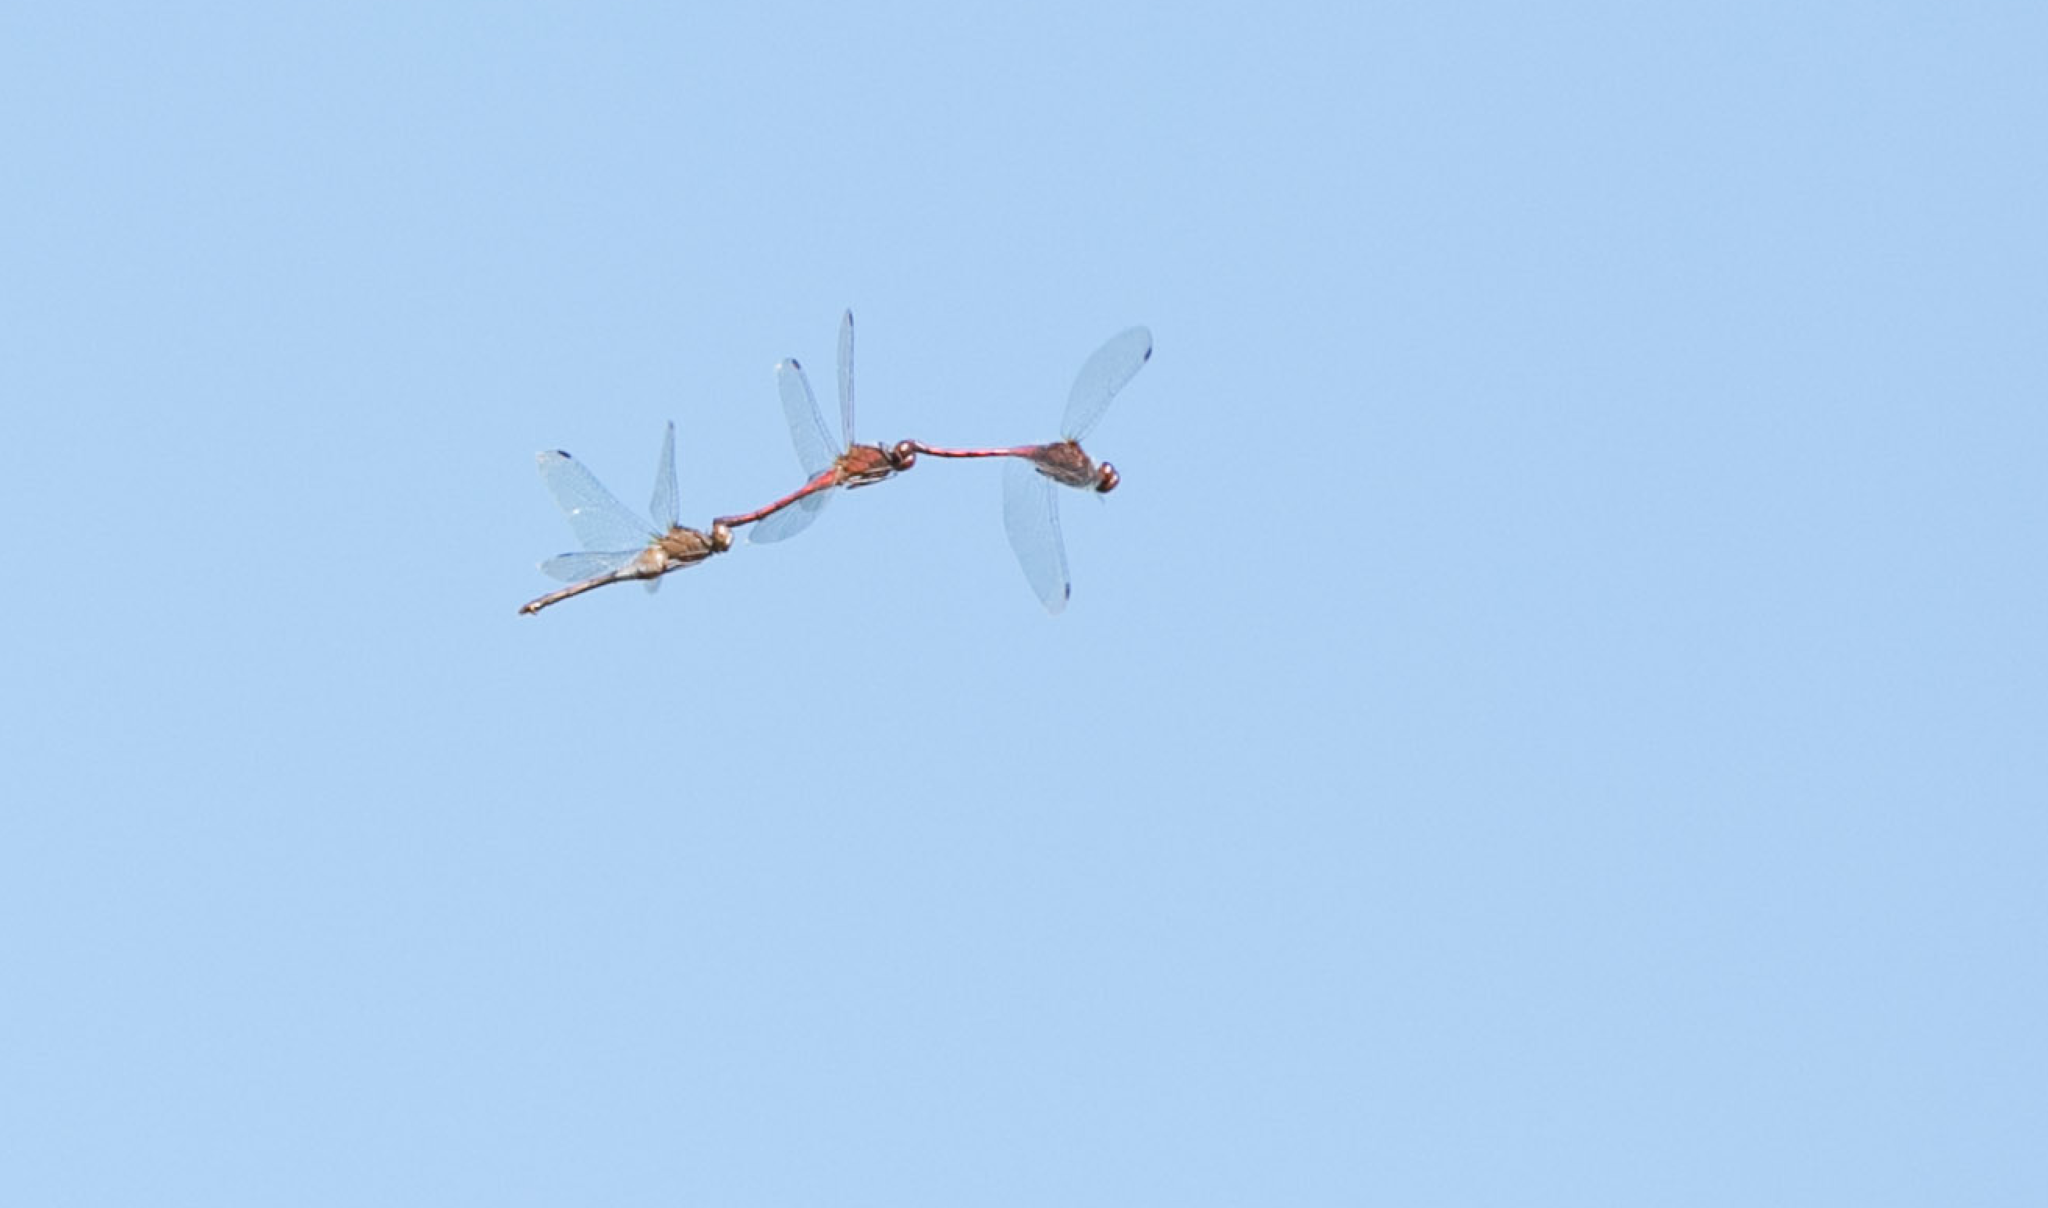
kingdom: Animalia
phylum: Arthropoda
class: Insecta
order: Odonata
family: Libellulidae
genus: Sympetrum
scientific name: Sympetrum vicinum
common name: Autumn meadowhawk
